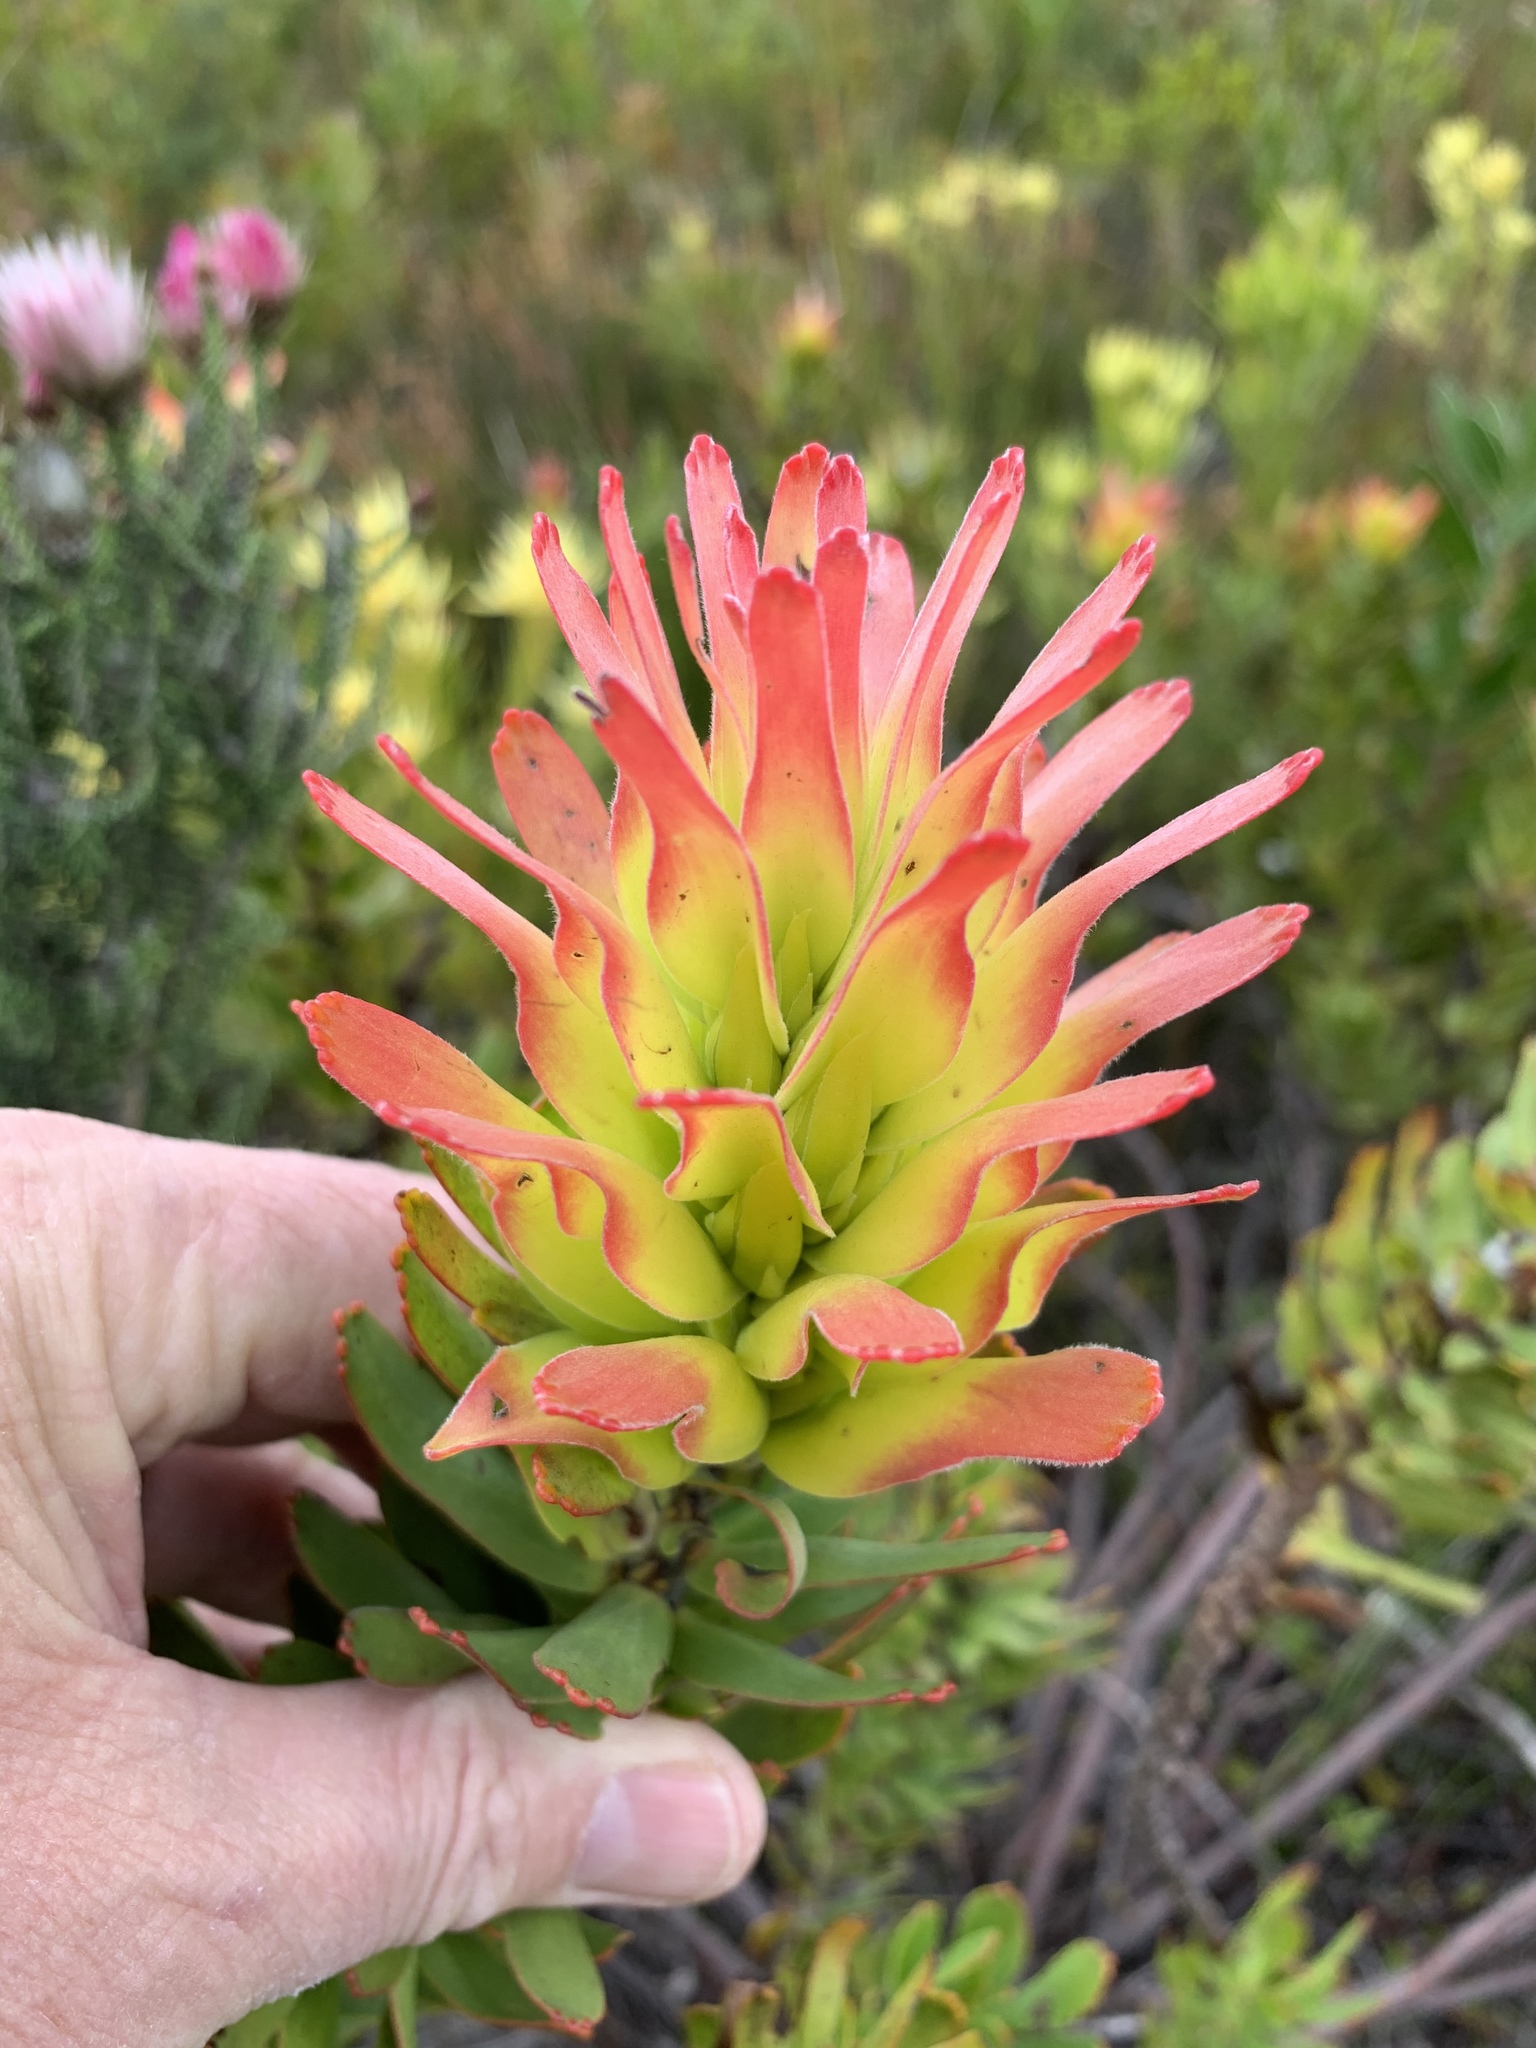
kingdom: Plantae
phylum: Tracheophyta
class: Magnoliopsida
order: Proteales
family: Proteaceae
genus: Mimetes
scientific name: Mimetes cucullatus
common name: Common pagoda
